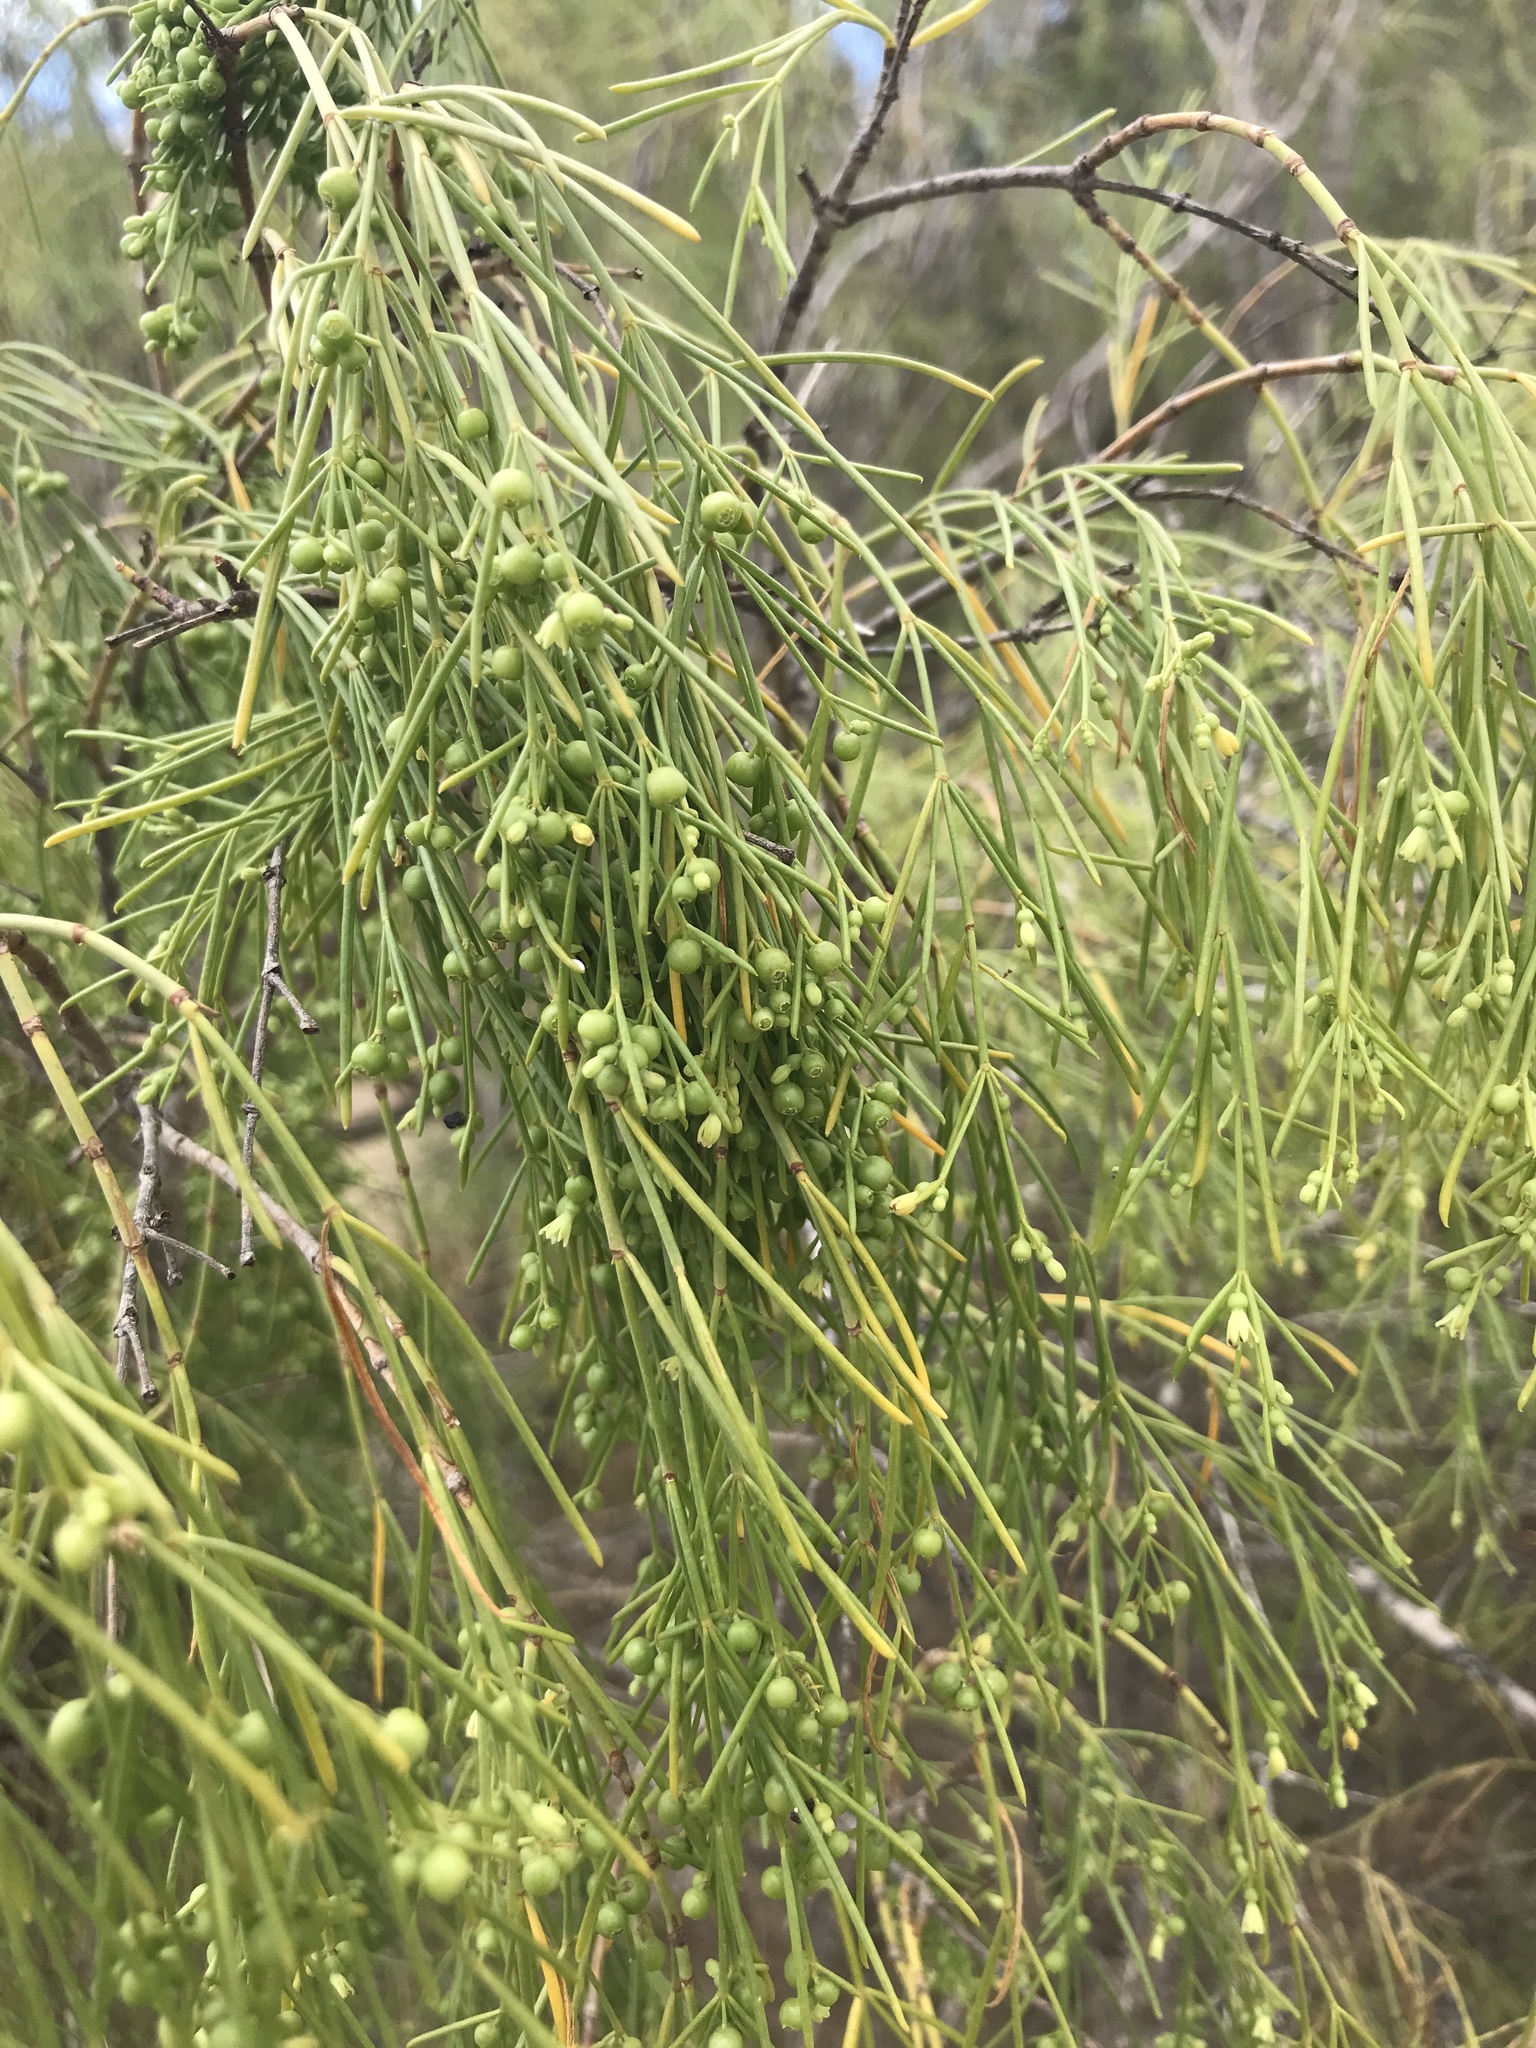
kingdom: Plantae
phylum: Tracheophyta
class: Magnoliopsida
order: Gentianales
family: Rubiaceae
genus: Plocama
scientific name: Plocama pendula
